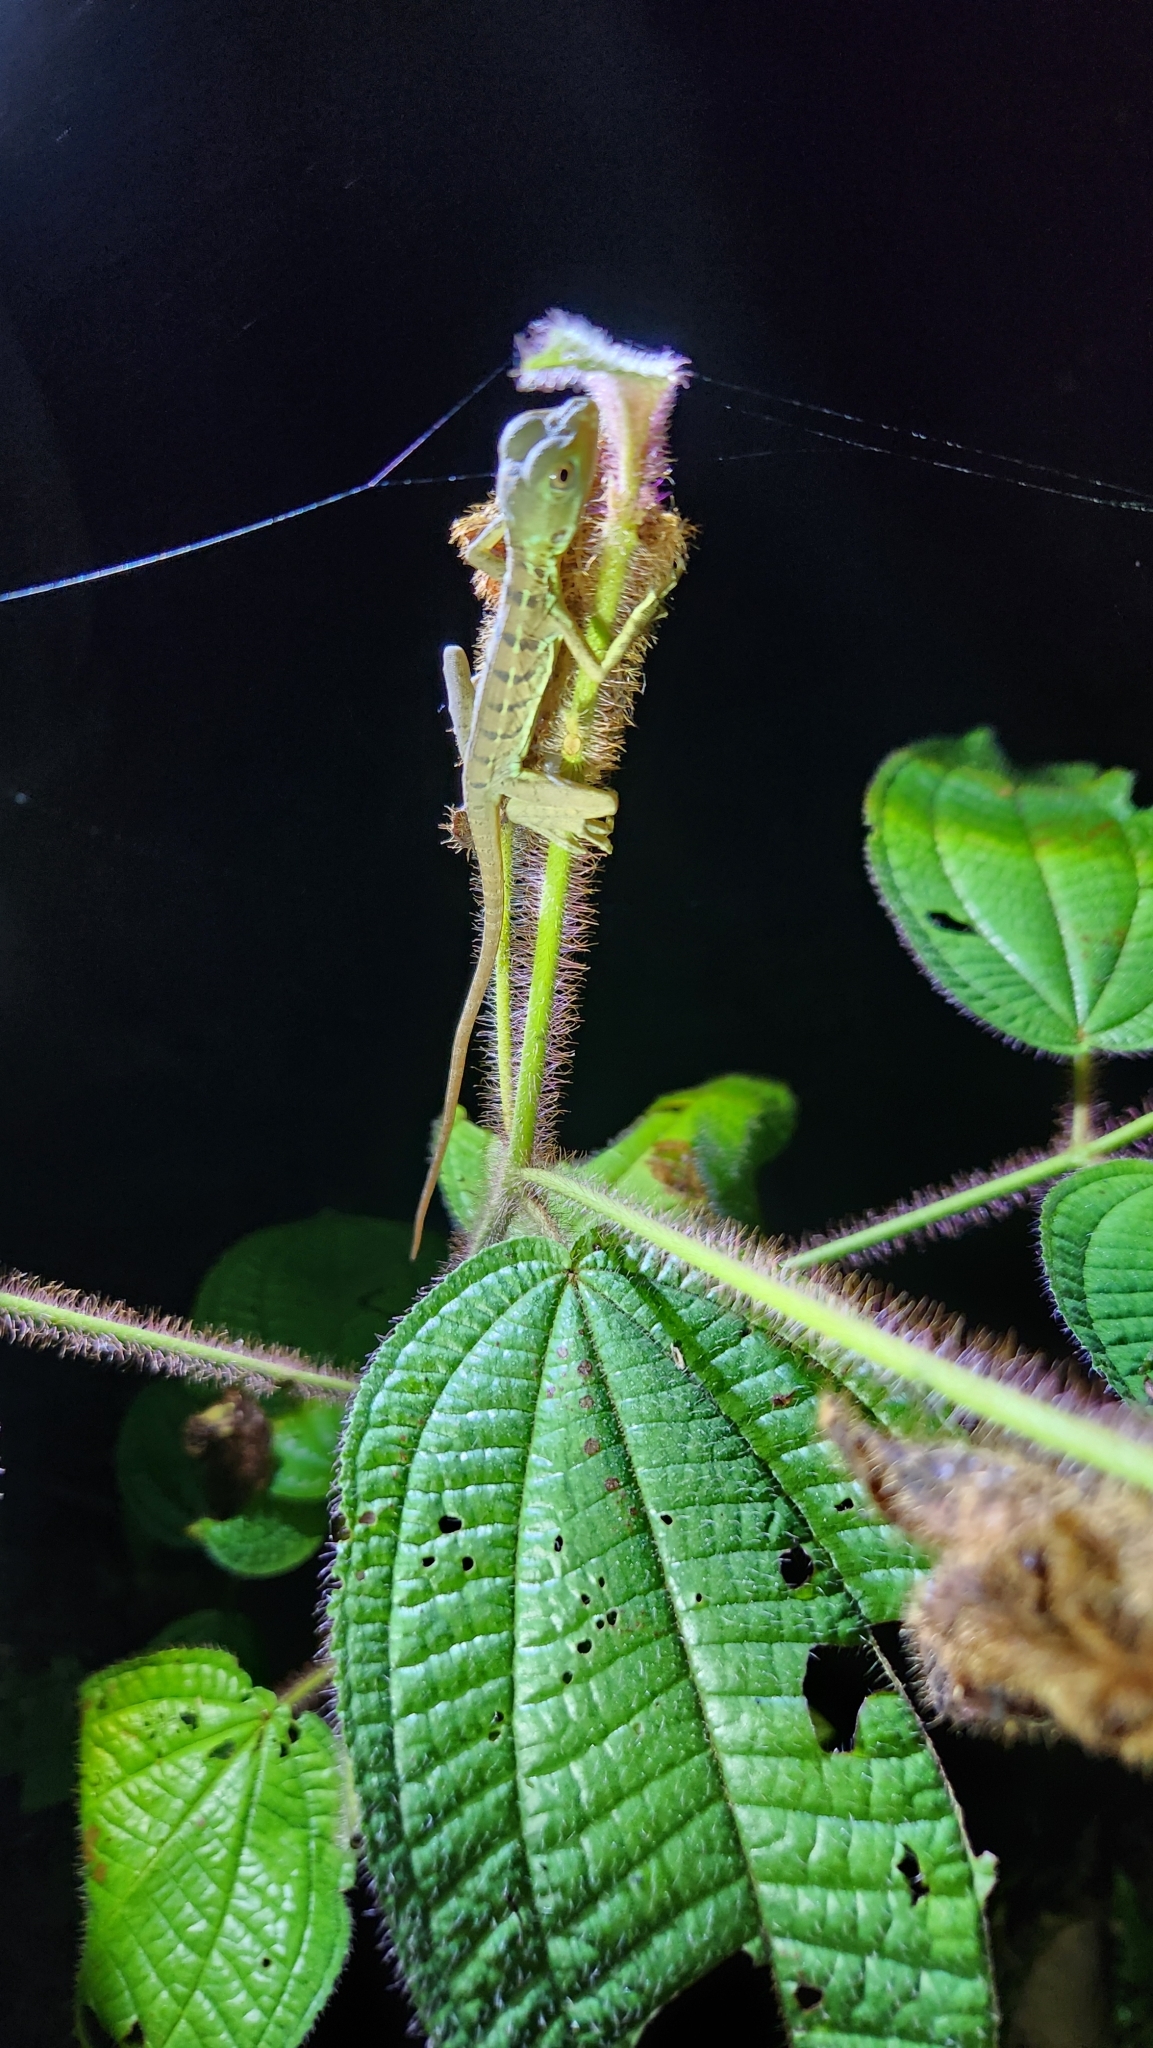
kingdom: Animalia
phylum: Chordata
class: Squamata
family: Corytophanidae
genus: Basiliscus
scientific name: Basiliscus plumifrons
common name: Green basilisk
